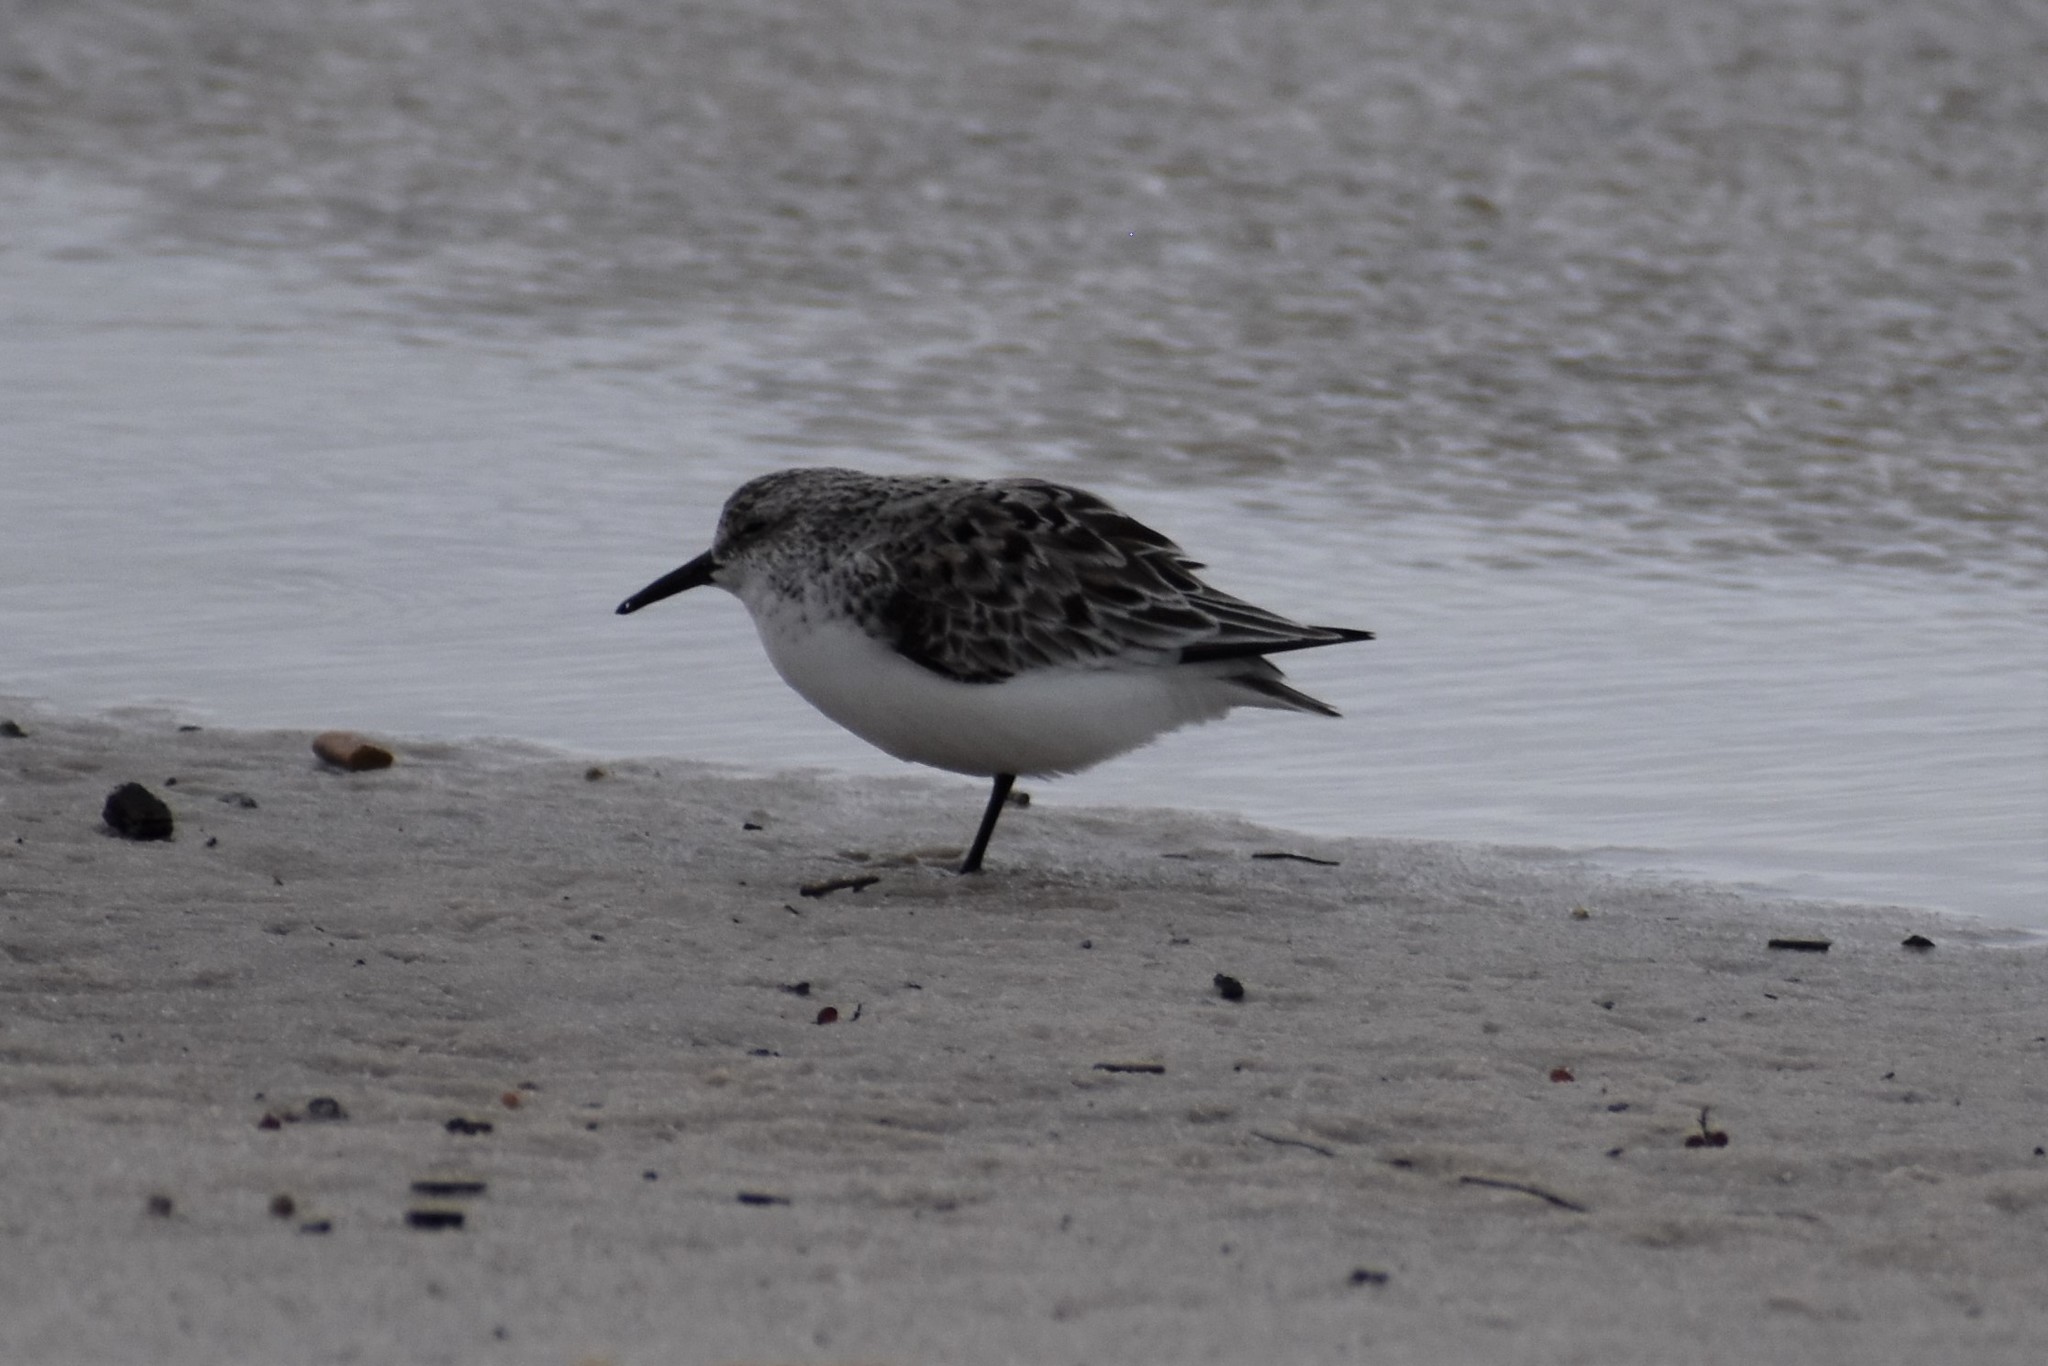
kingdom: Animalia
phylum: Chordata
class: Aves
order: Charadriiformes
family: Scolopacidae
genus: Calidris
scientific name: Calidris alba
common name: Sanderling
